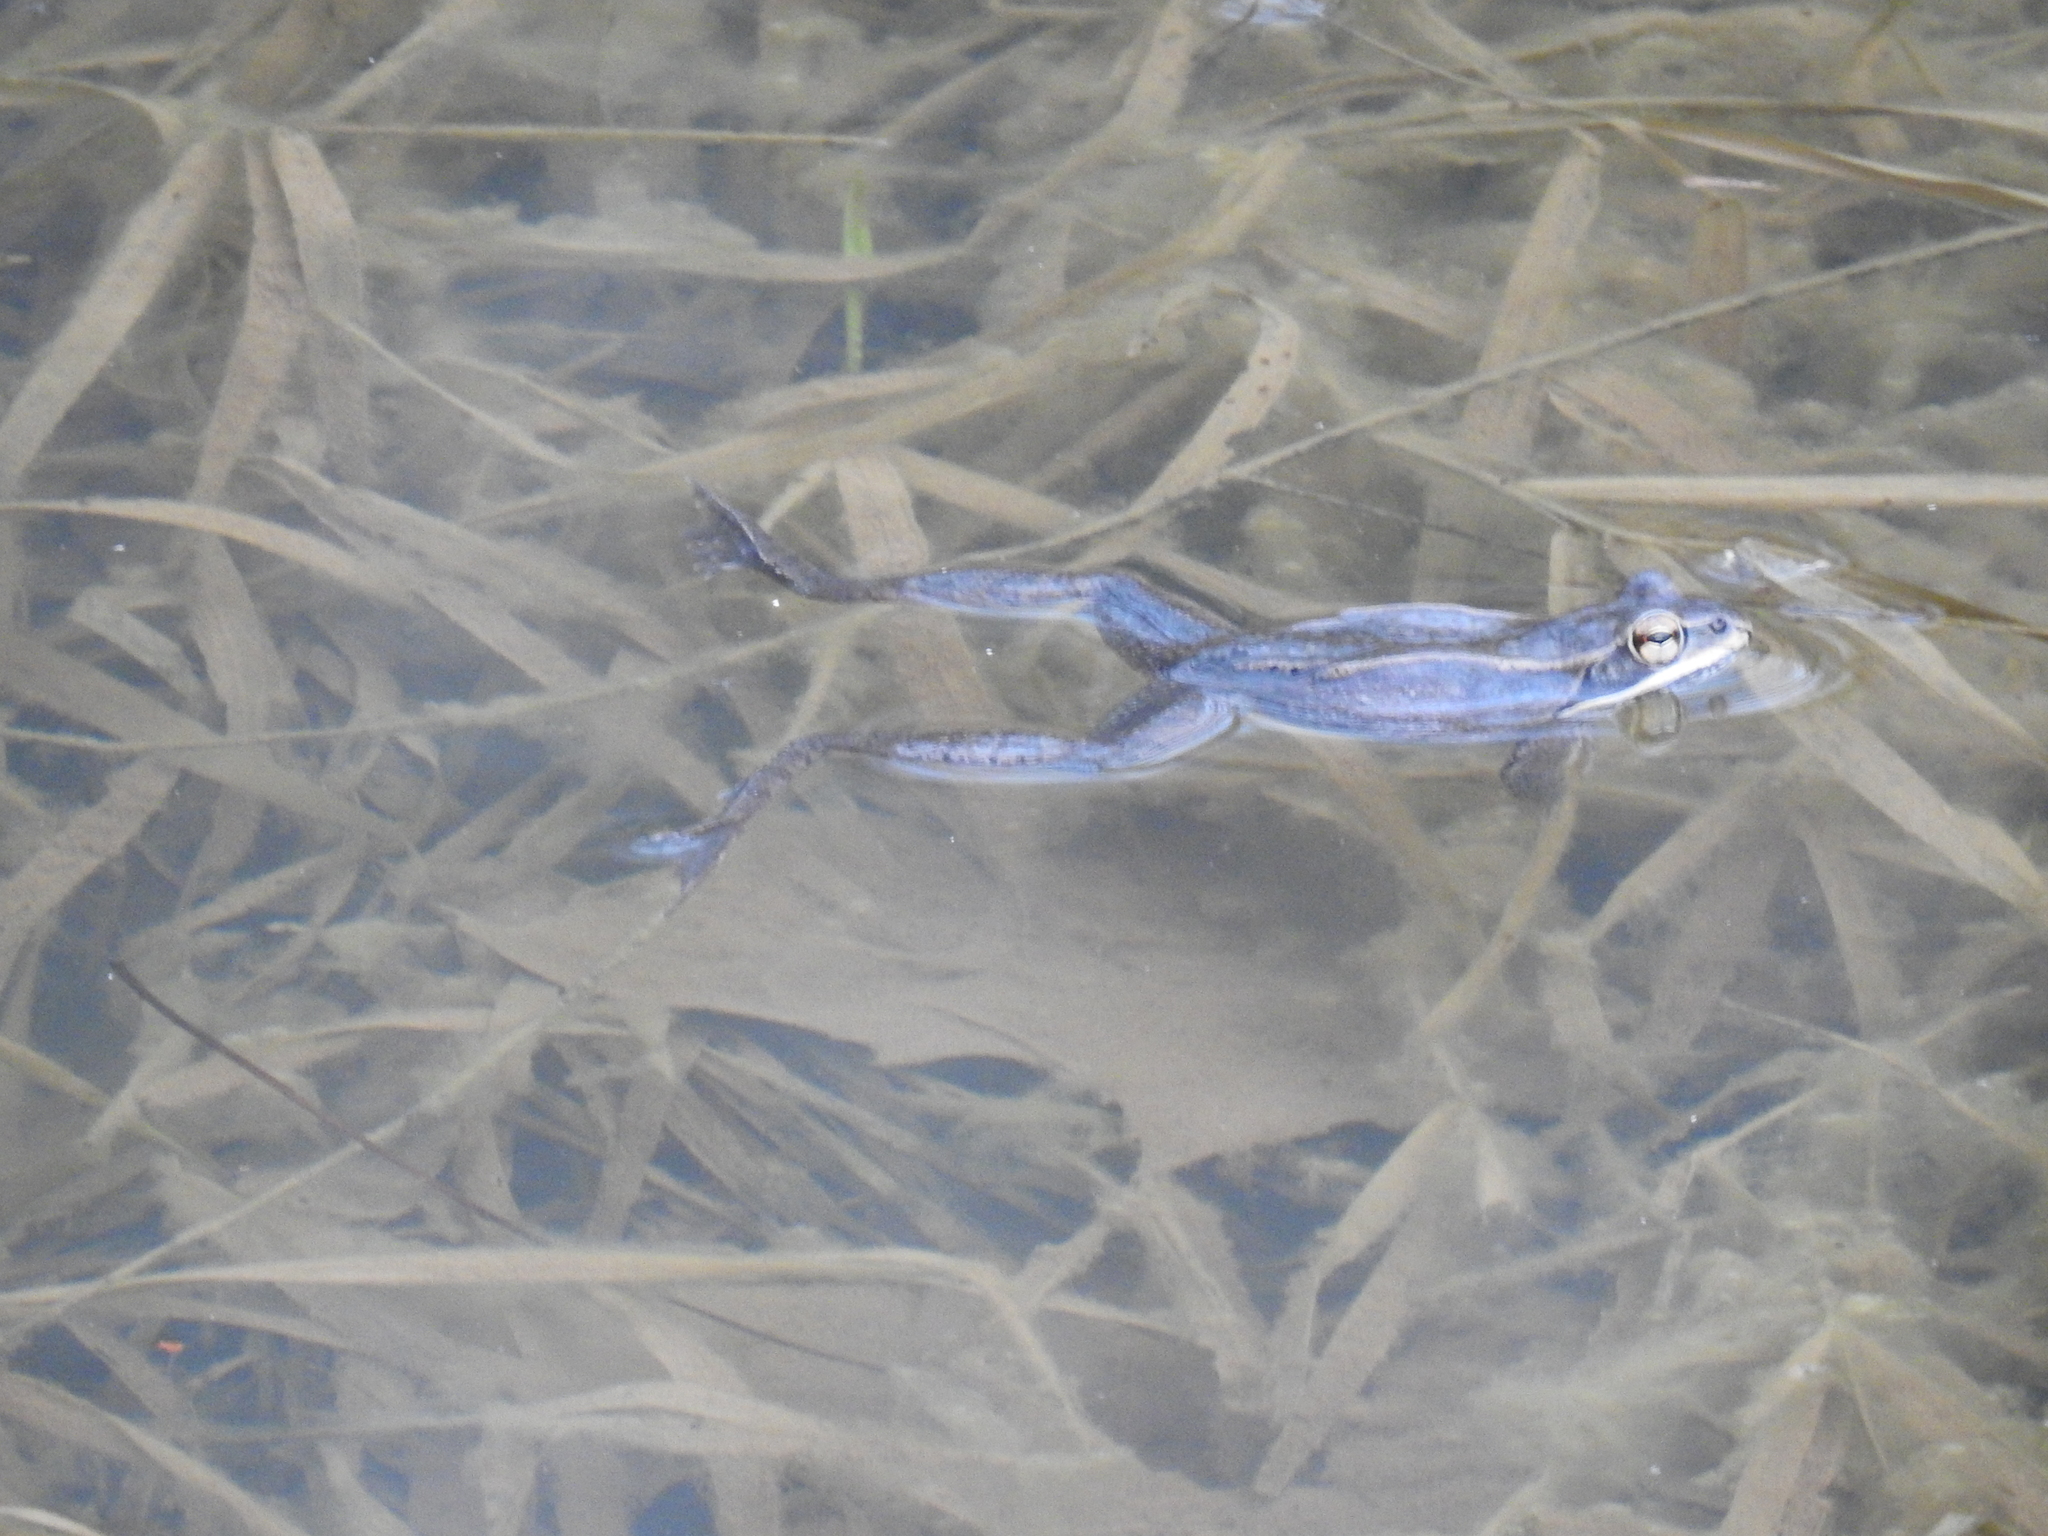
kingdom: Animalia
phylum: Chordata
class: Amphibia
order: Anura
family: Ranidae
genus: Lithobates
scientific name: Lithobates sylvaticus
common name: Wood frog
